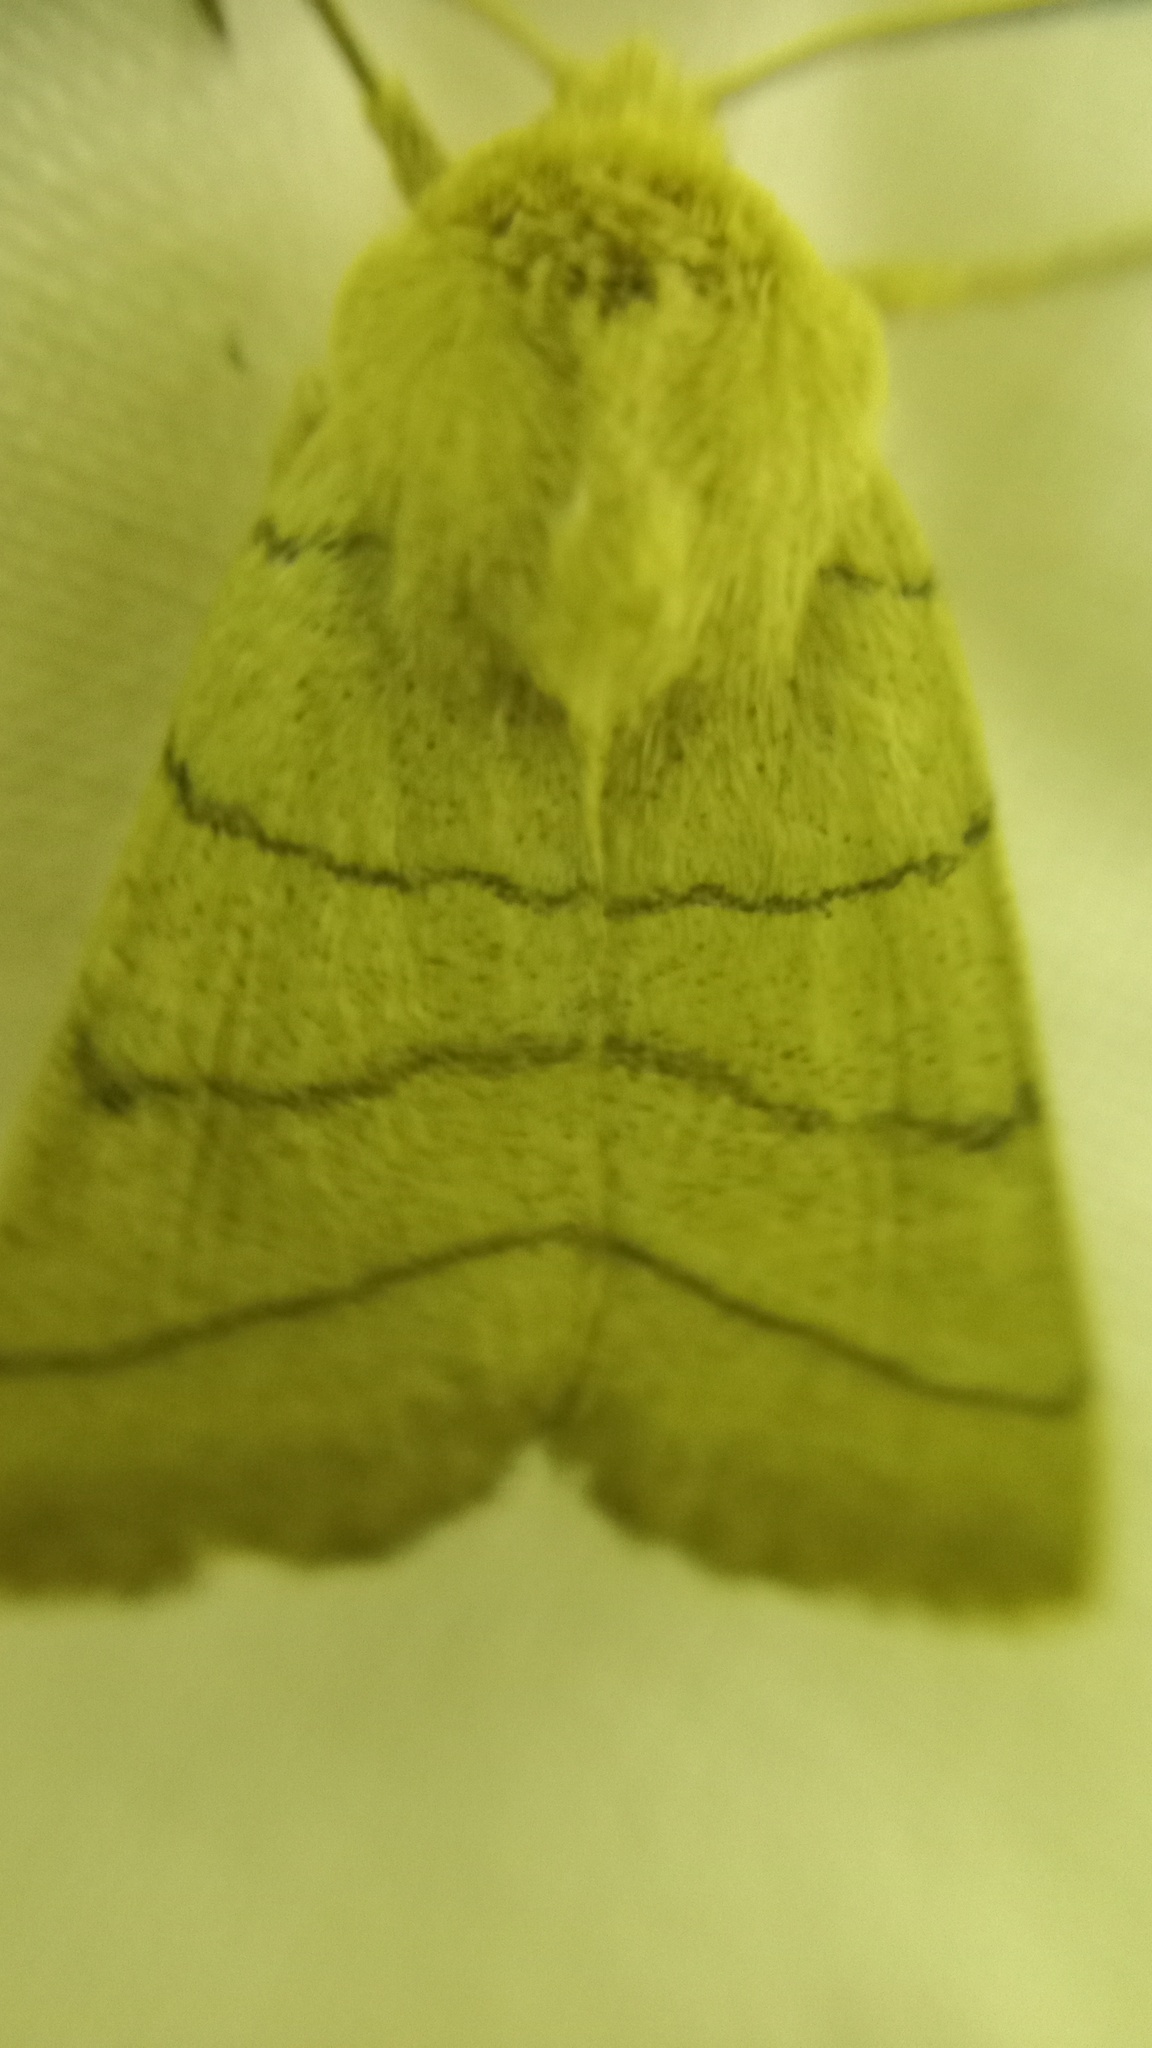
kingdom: Animalia
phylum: Arthropoda
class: Insecta
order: Lepidoptera
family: Noctuidae
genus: Charanyca
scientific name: Charanyca trigrammica
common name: Treble lines
